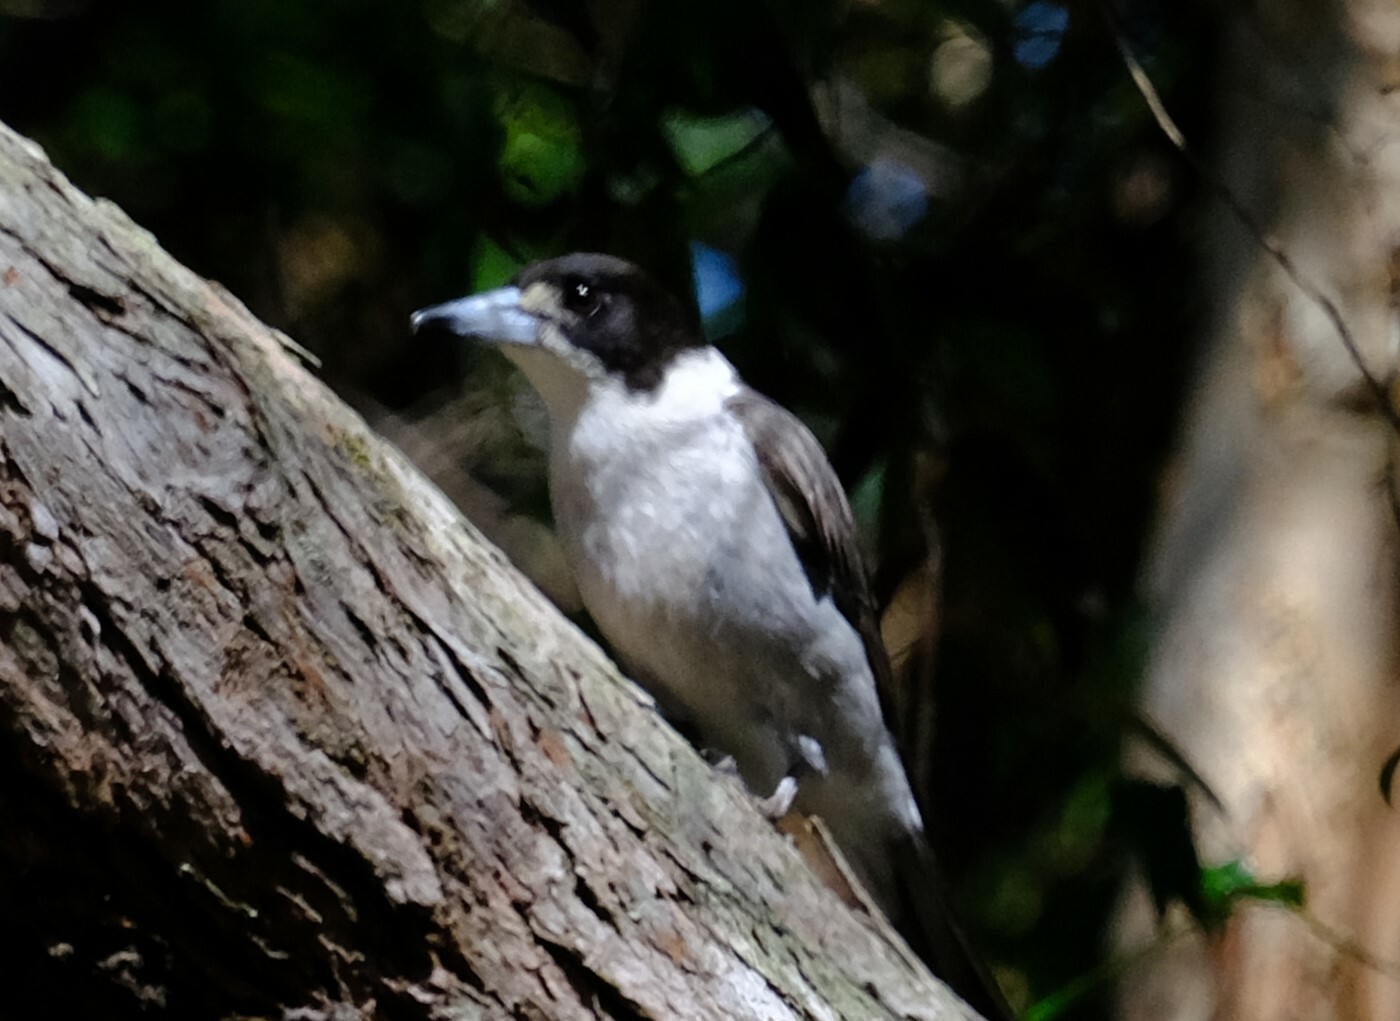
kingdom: Animalia
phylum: Chordata
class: Aves
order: Passeriformes
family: Cracticidae
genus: Cracticus
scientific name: Cracticus torquatus
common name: Grey butcherbird
